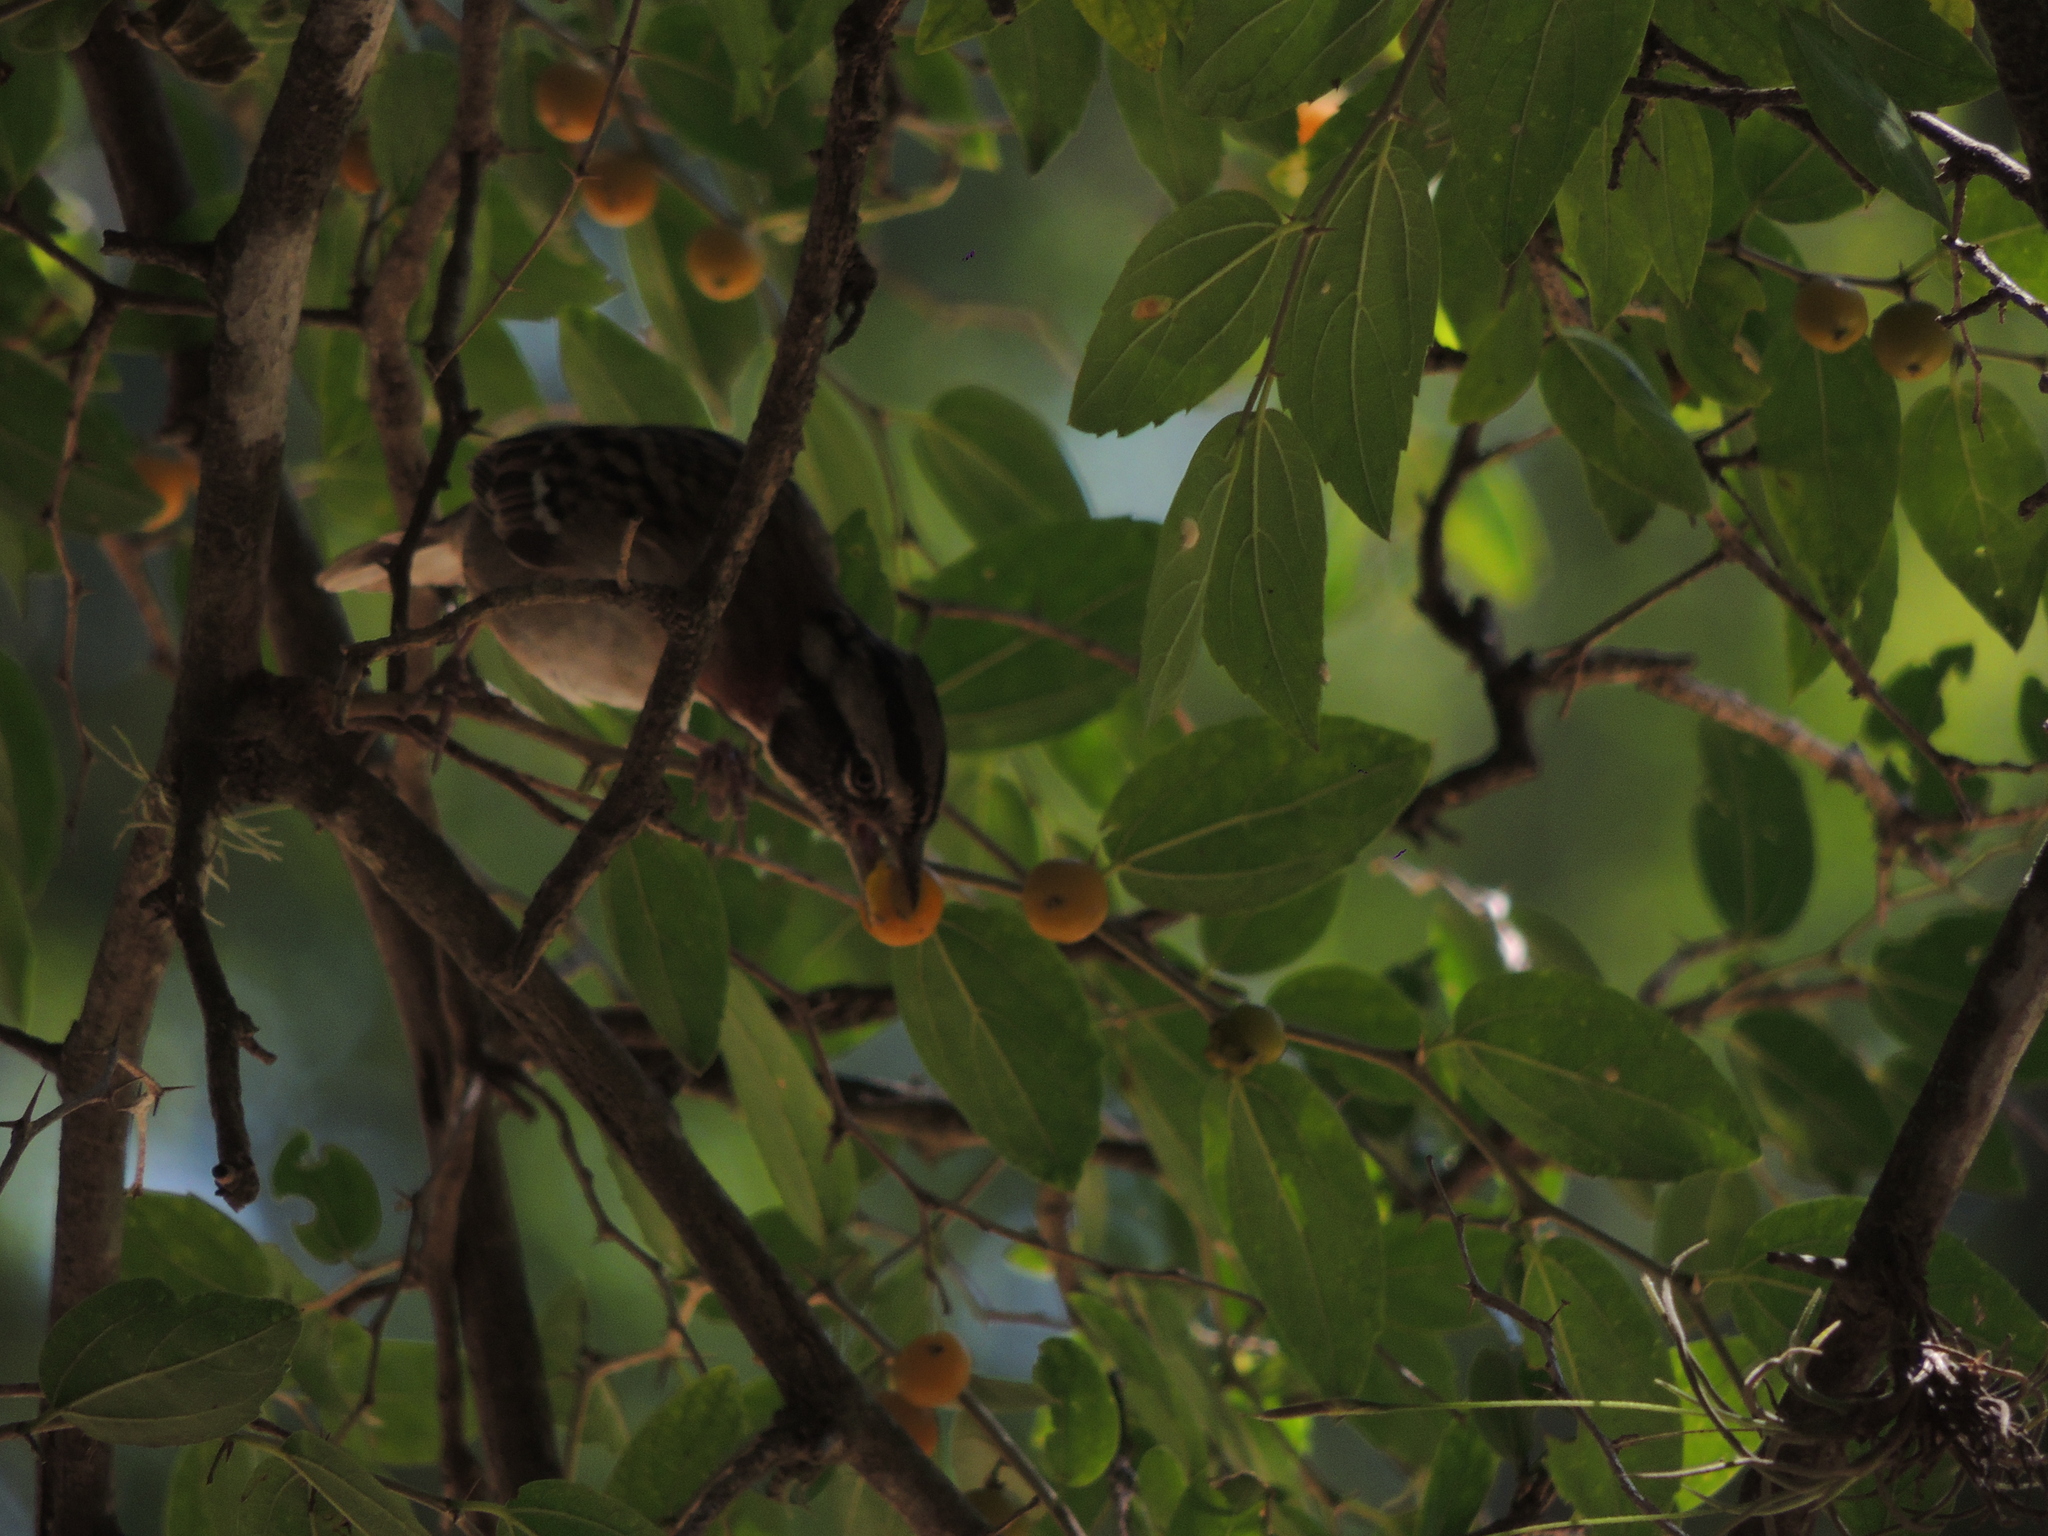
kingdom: Animalia
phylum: Chordata
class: Aves
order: Passeriformes
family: Passerellidae
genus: Zonotrichia
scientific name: Zonotrichia capensis
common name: Rufous-collared sparrow
